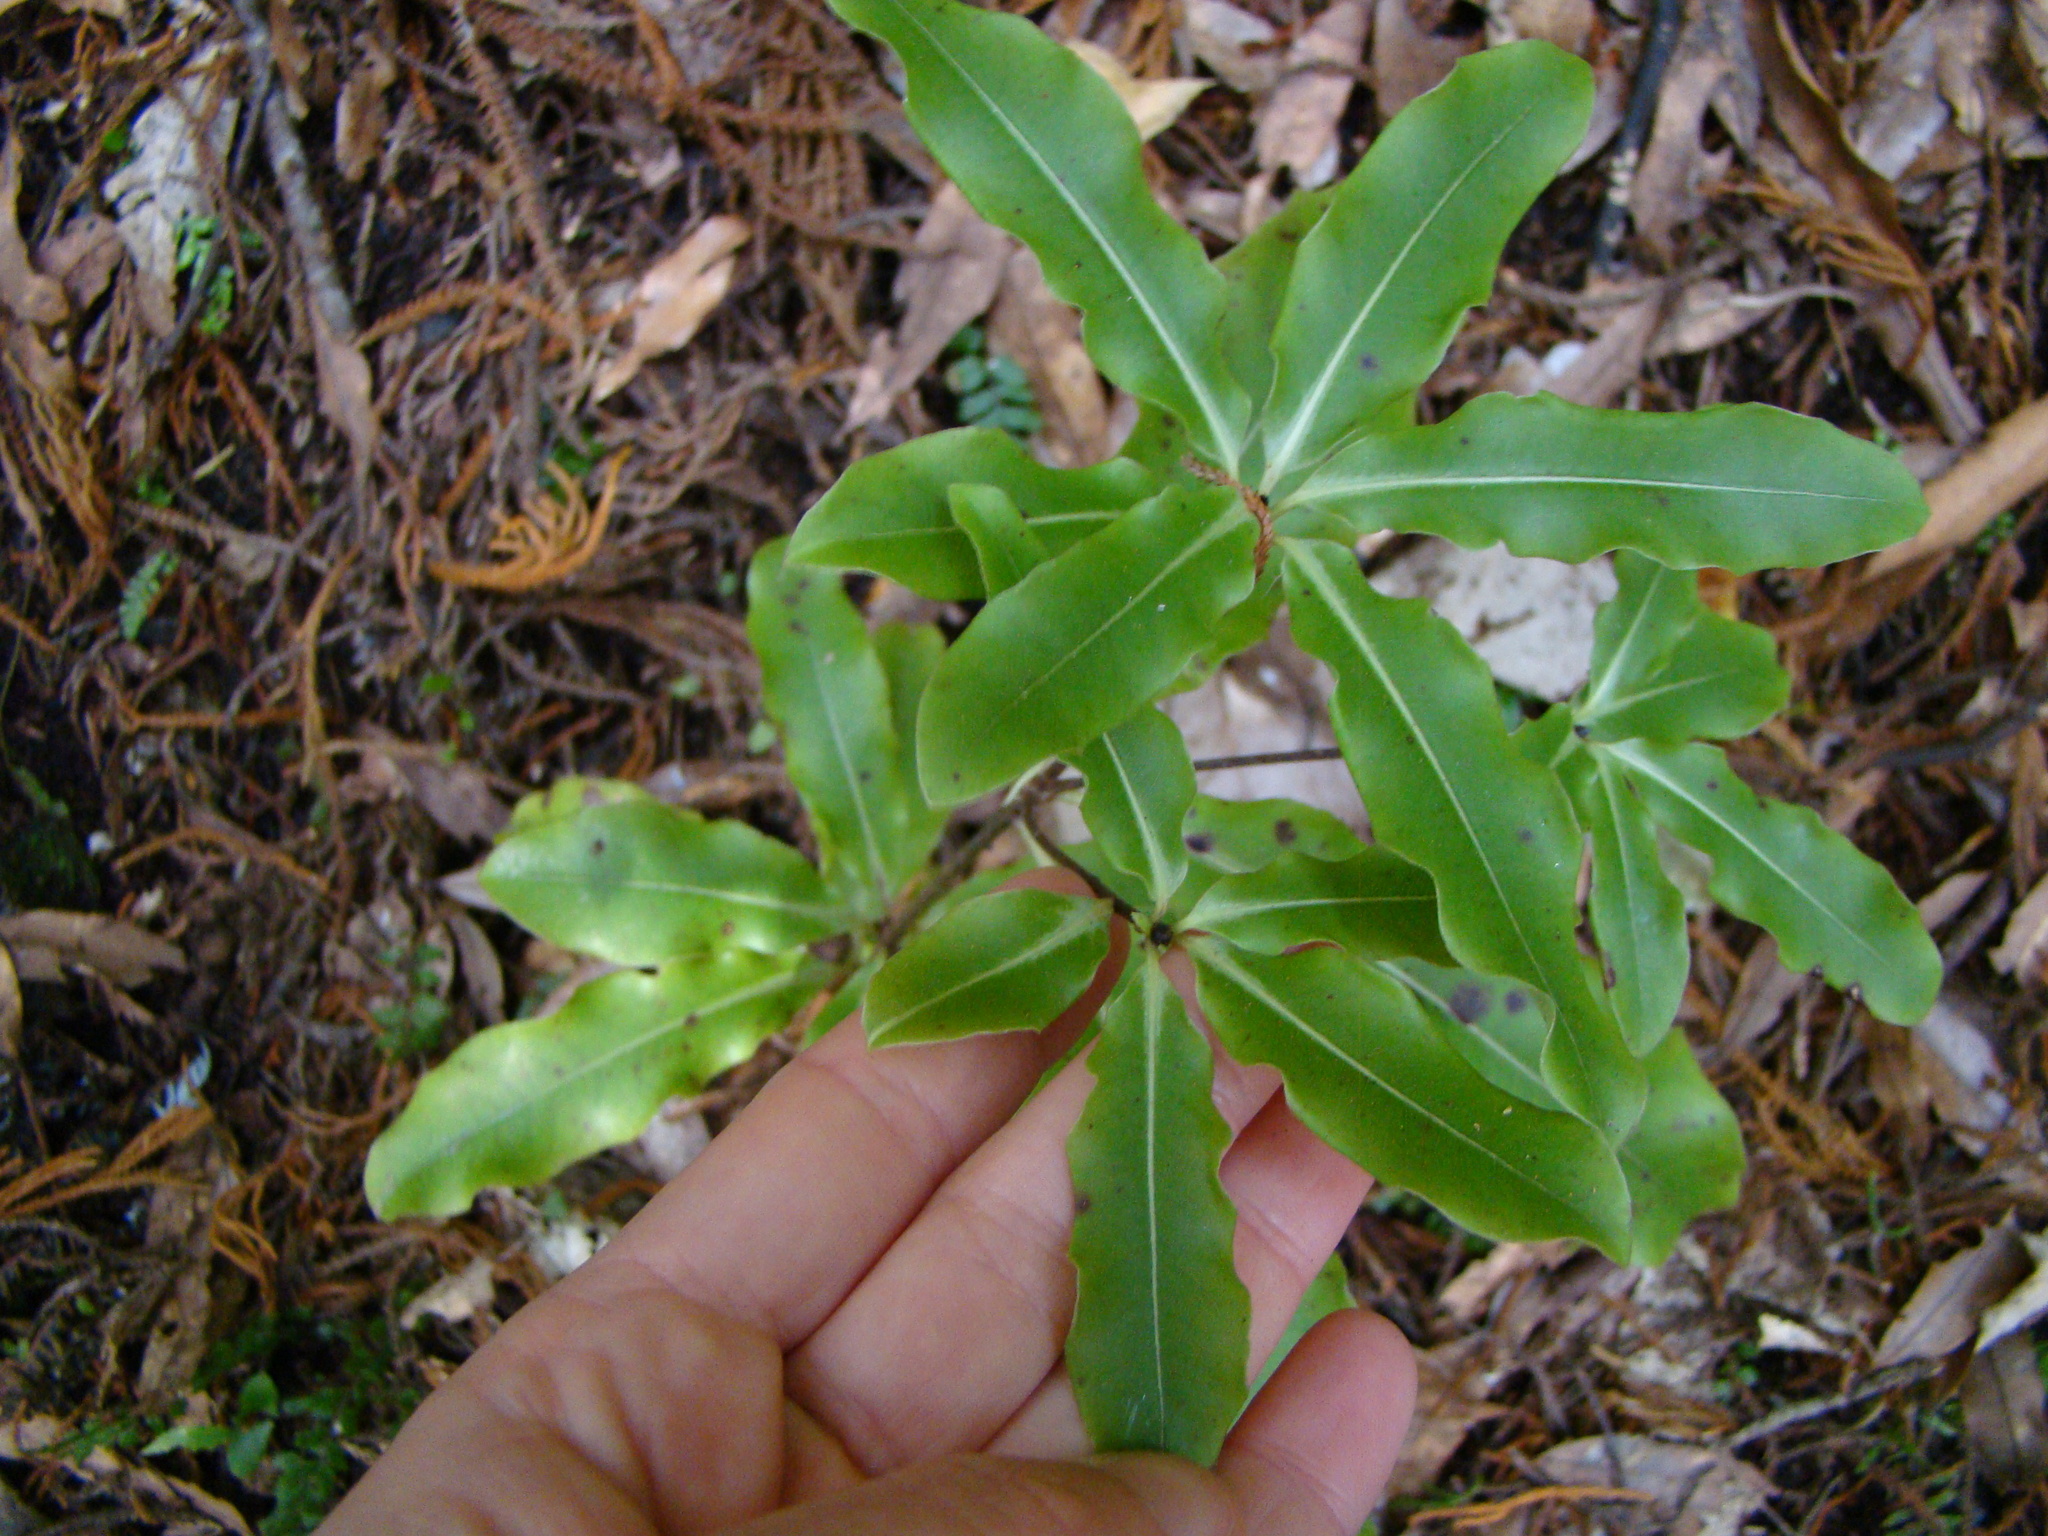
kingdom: Plantae
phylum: Tracheophyta
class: Magnoliopsida
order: Apiales
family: Pittosporaceae
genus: Pittosporum
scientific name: Pittosporum eugenioides
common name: Lemonwood
